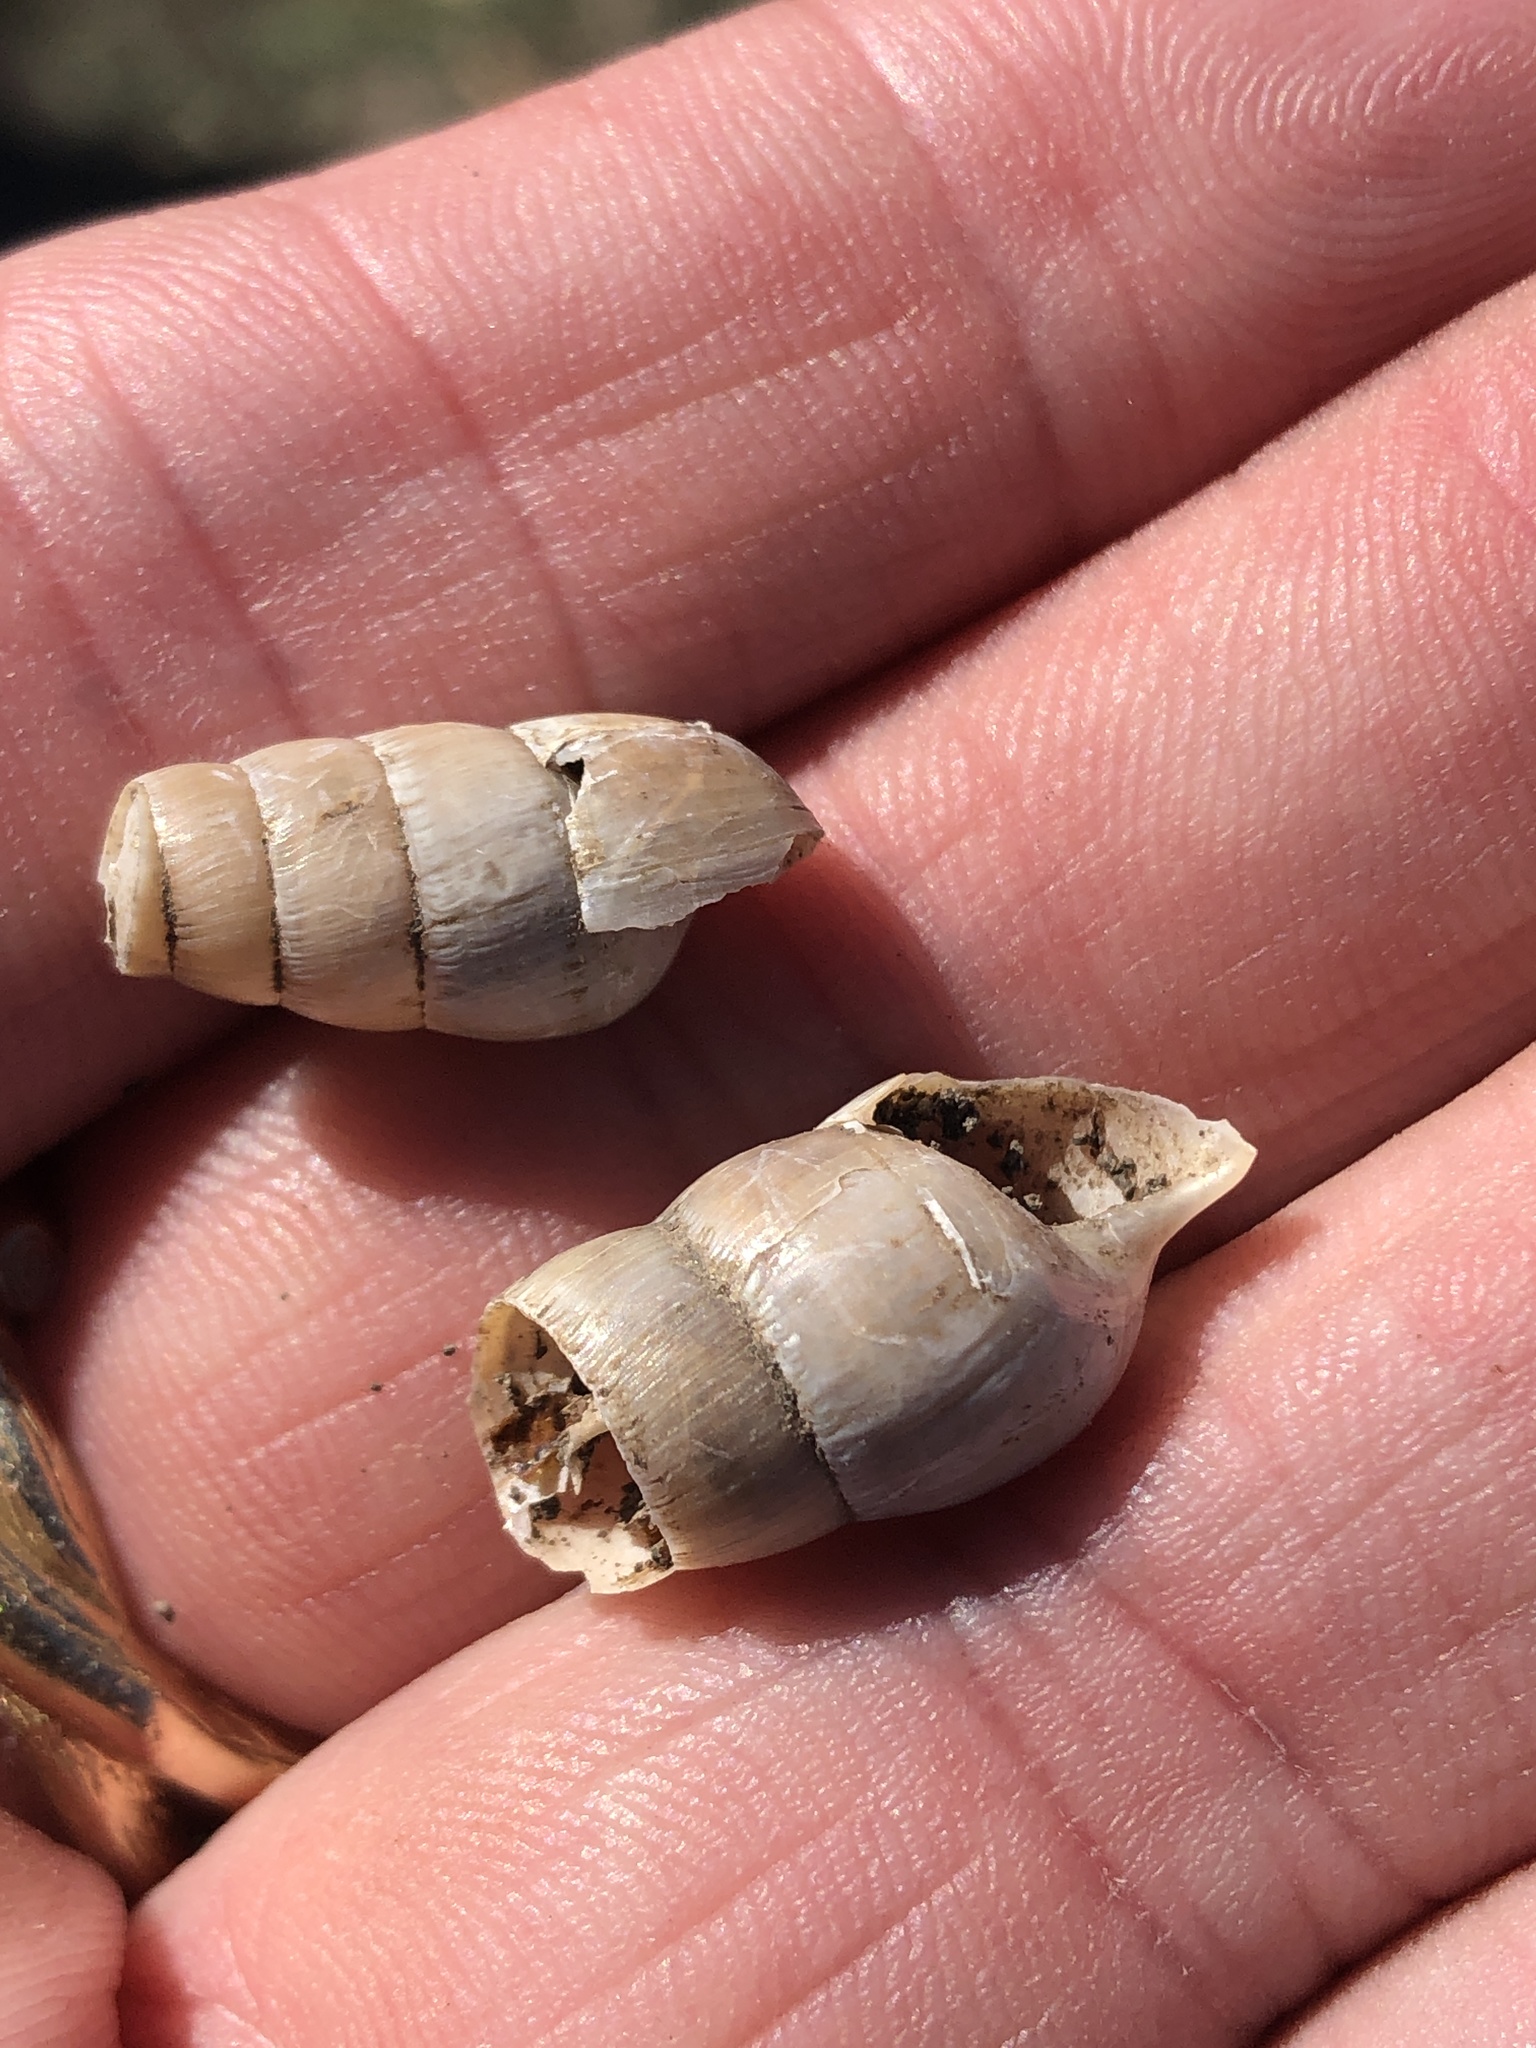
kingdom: Animalia
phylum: Mollusca
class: Gastropoda
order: Stylommatophora
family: Achatinidae
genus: Rumina
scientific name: Rumina decollata
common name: Decollate snail
